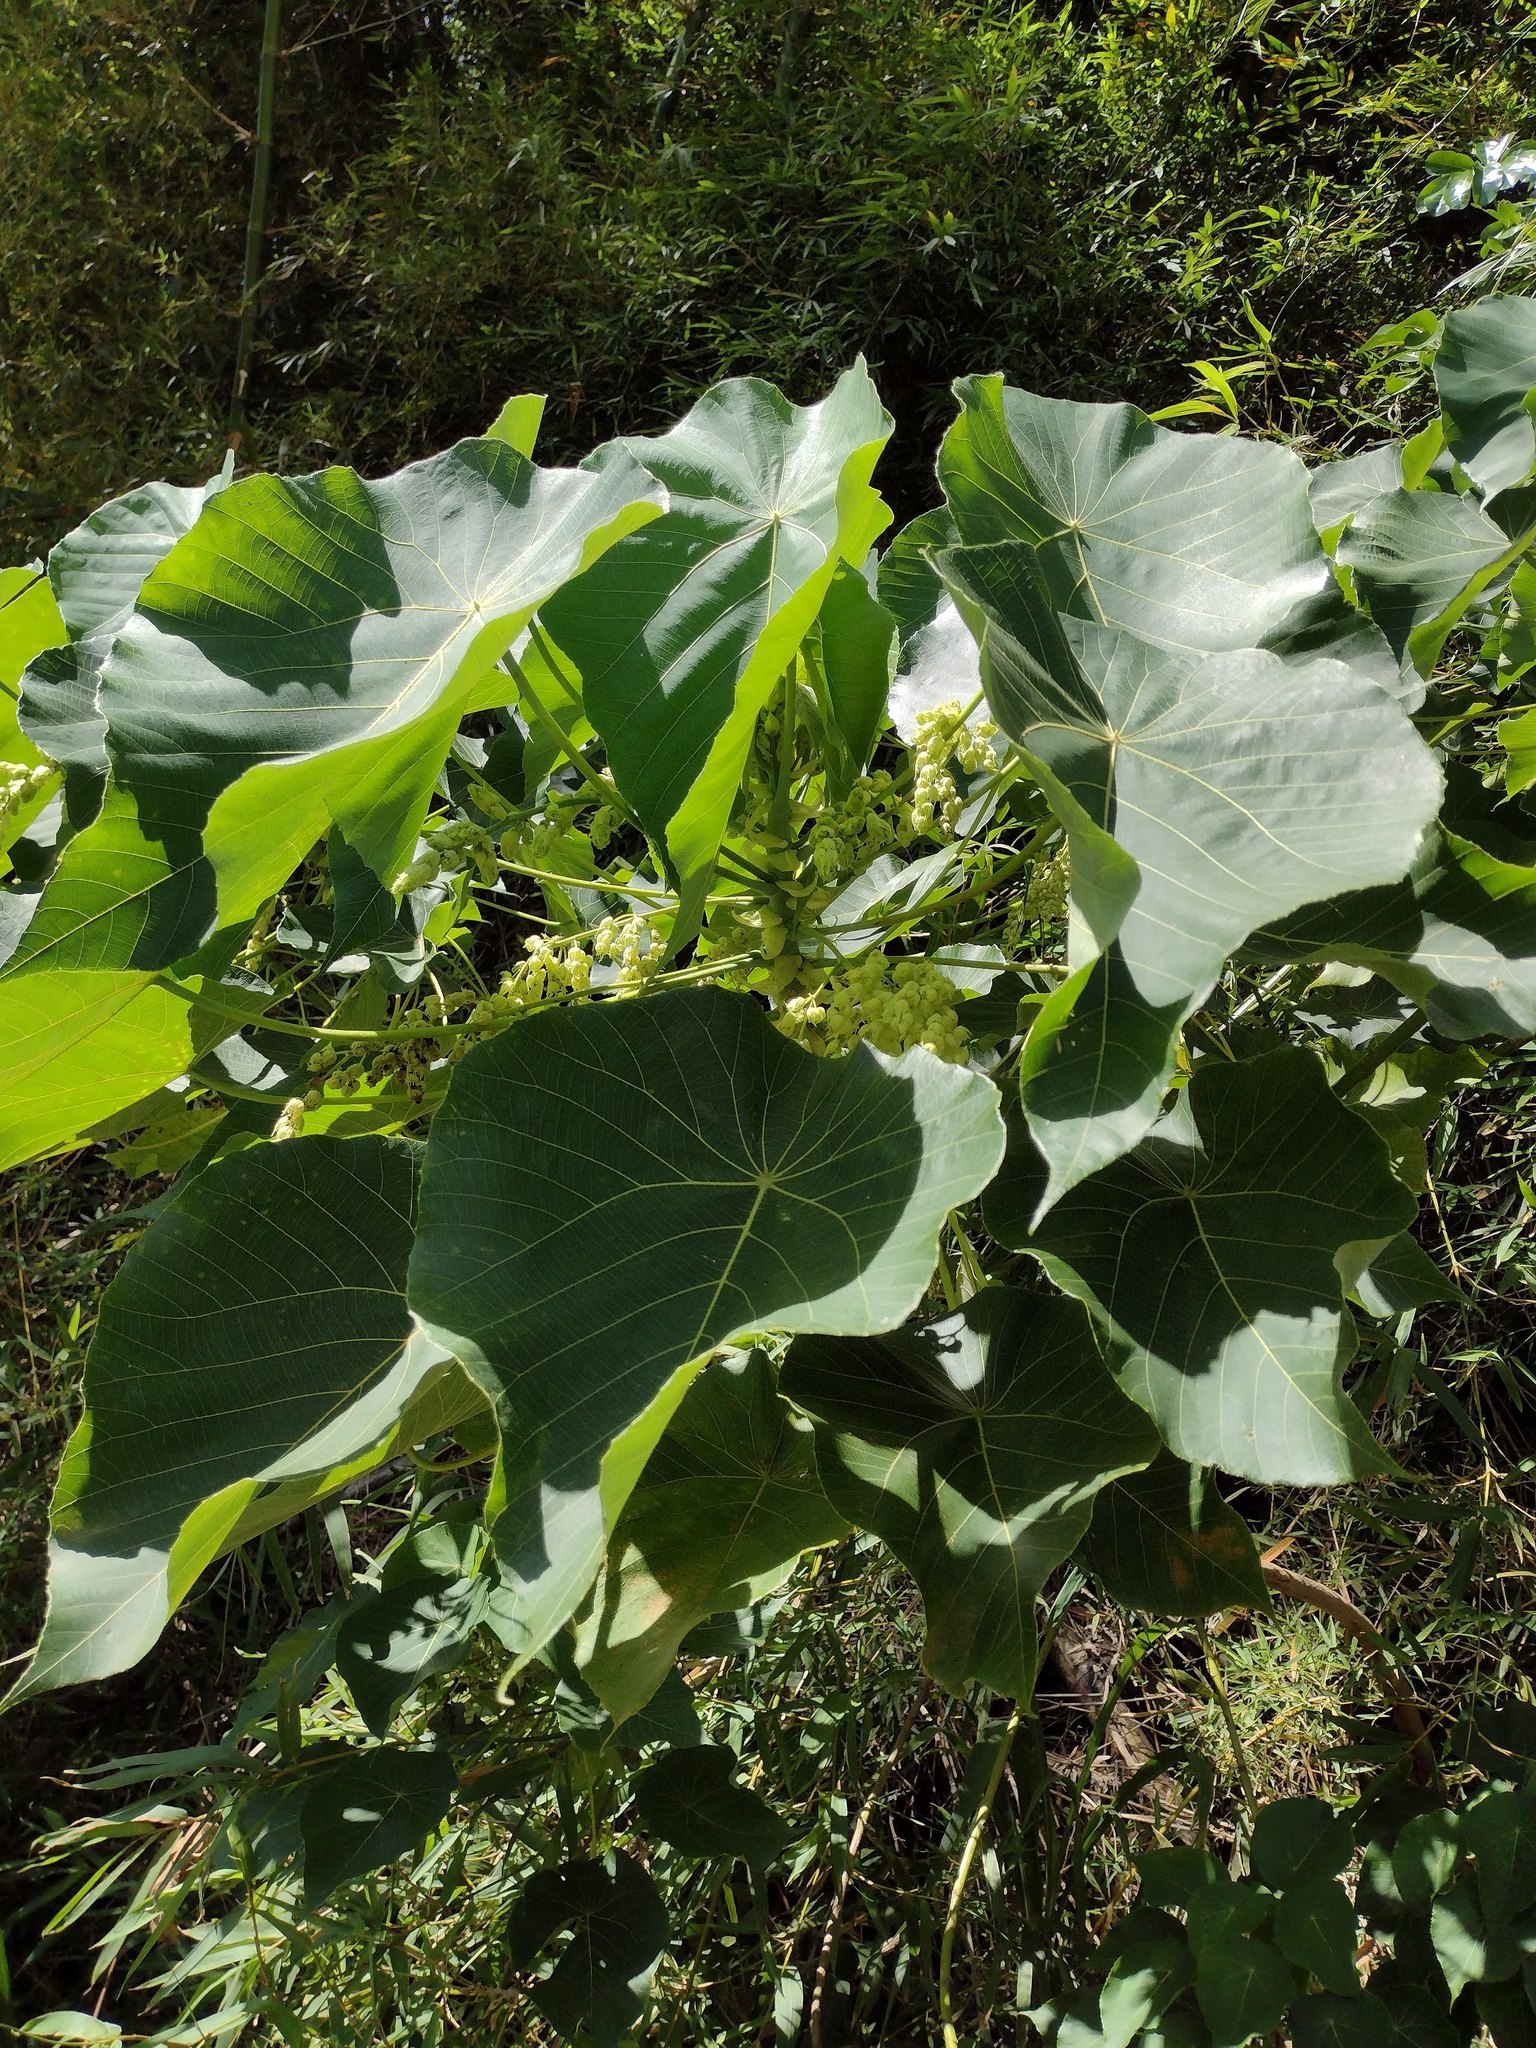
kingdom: Plantae
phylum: Tracheophyta
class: Magnoliopsida
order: Malpighiales
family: Euphorbiaceae
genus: Macaranga
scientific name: Macaranga tanarius
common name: Parasol leaf tree
